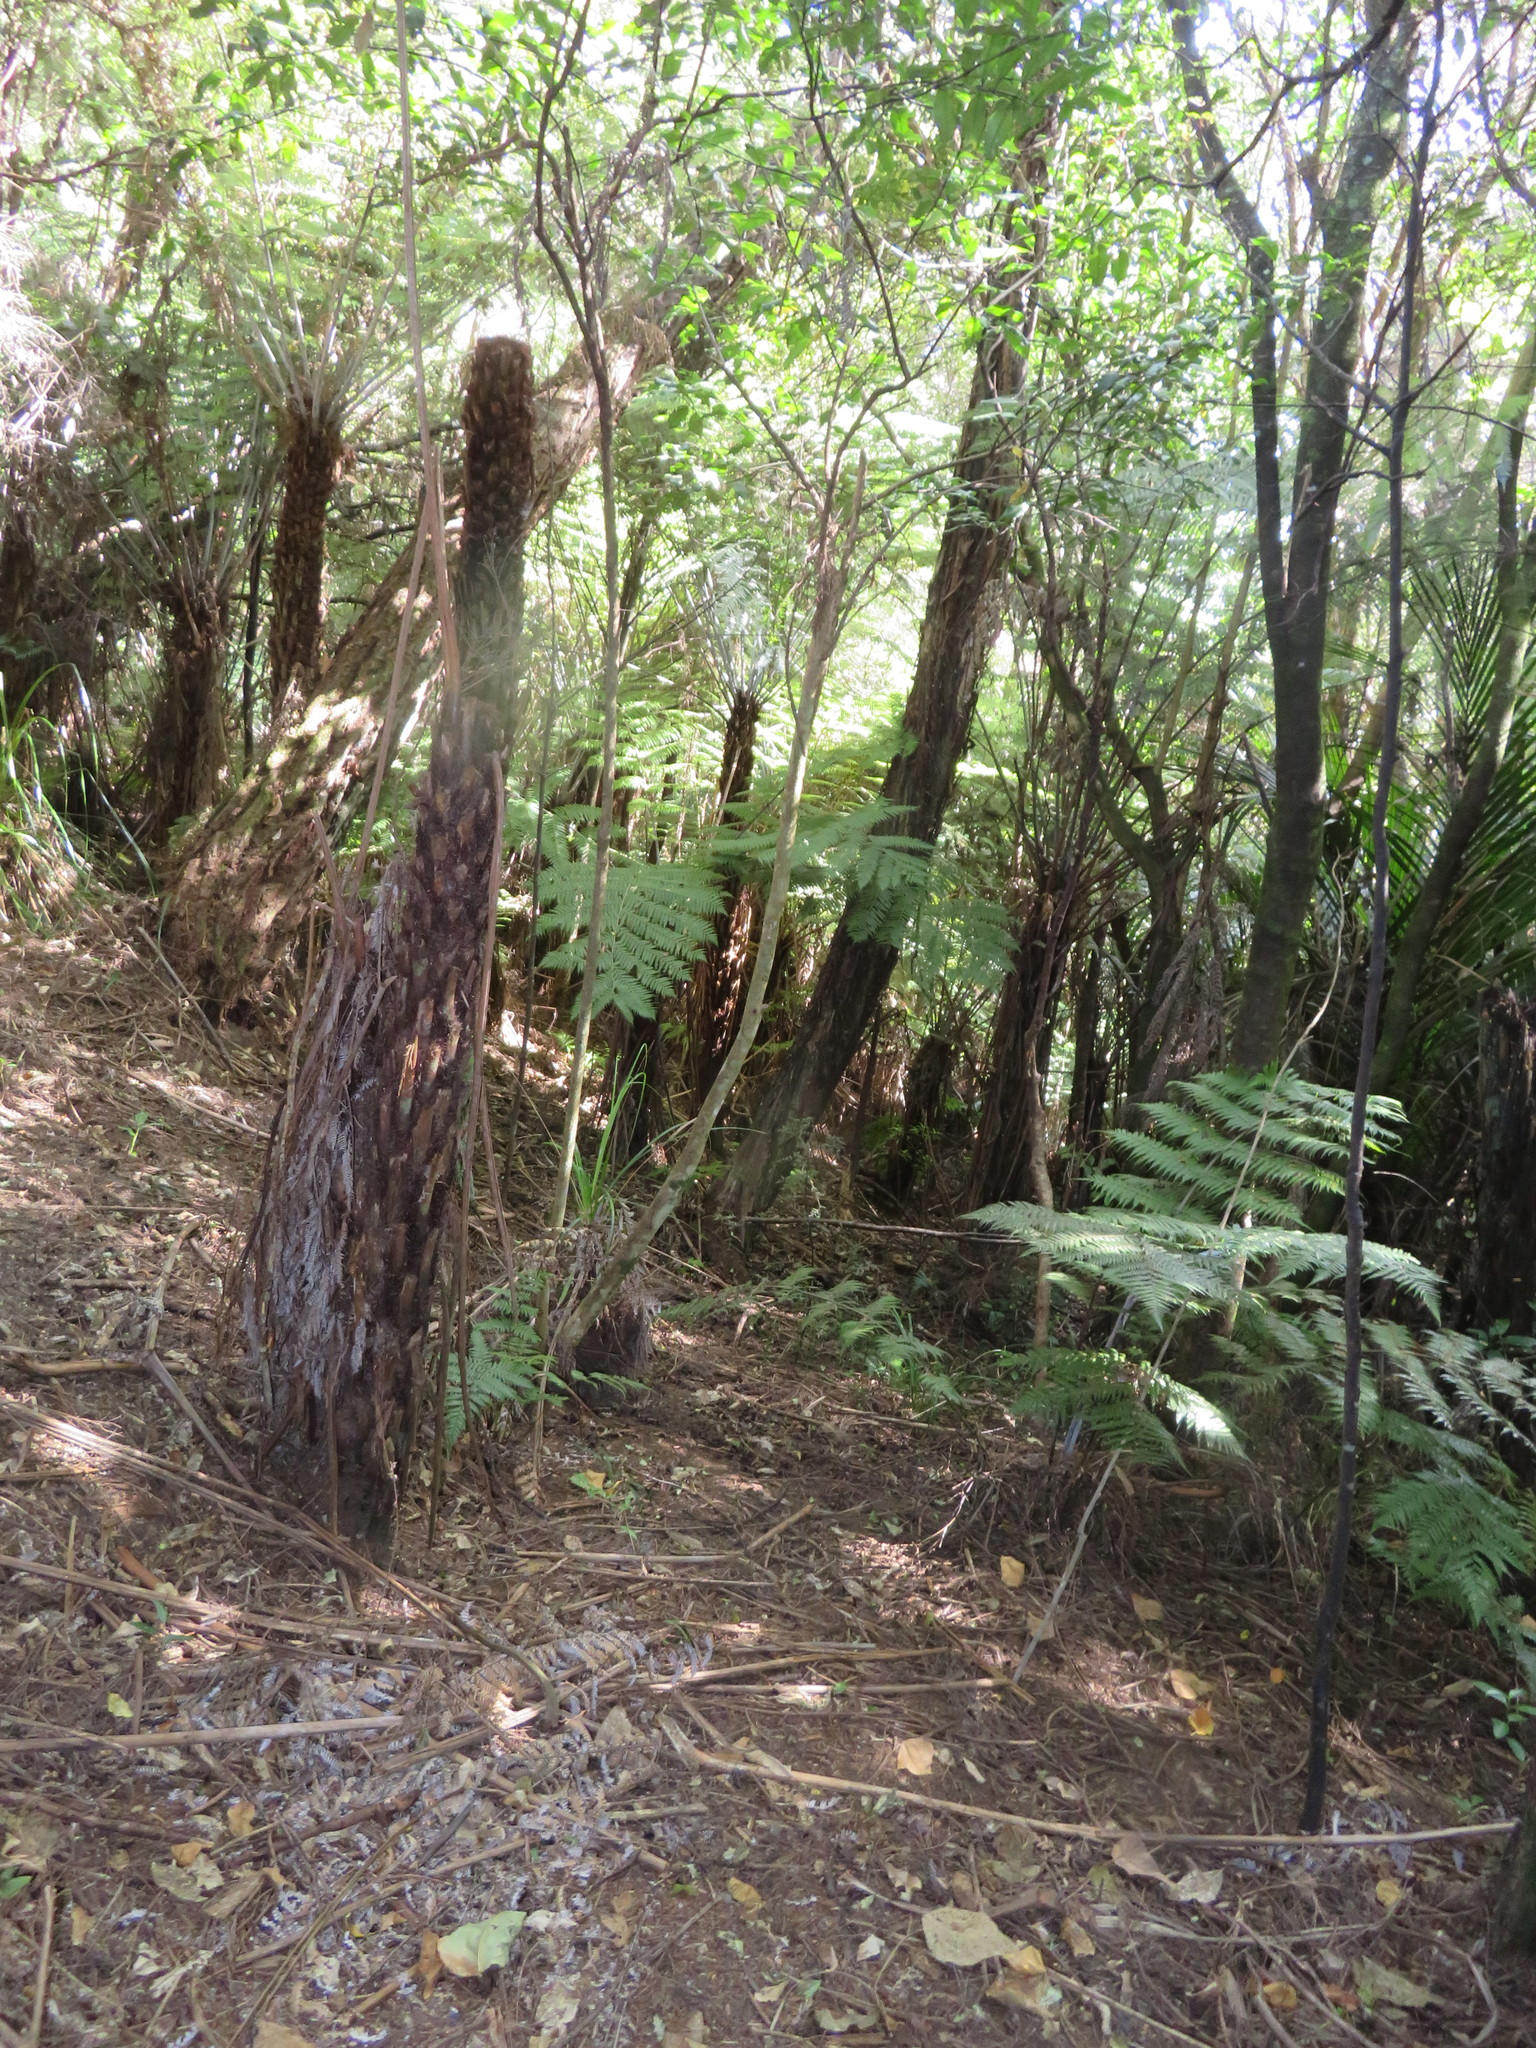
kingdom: Plantae
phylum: Tracheophyta
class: Polypodiopsida
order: Cyatheales
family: Cyatheaceae
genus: Alsophila
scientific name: Alsophila dealbata
